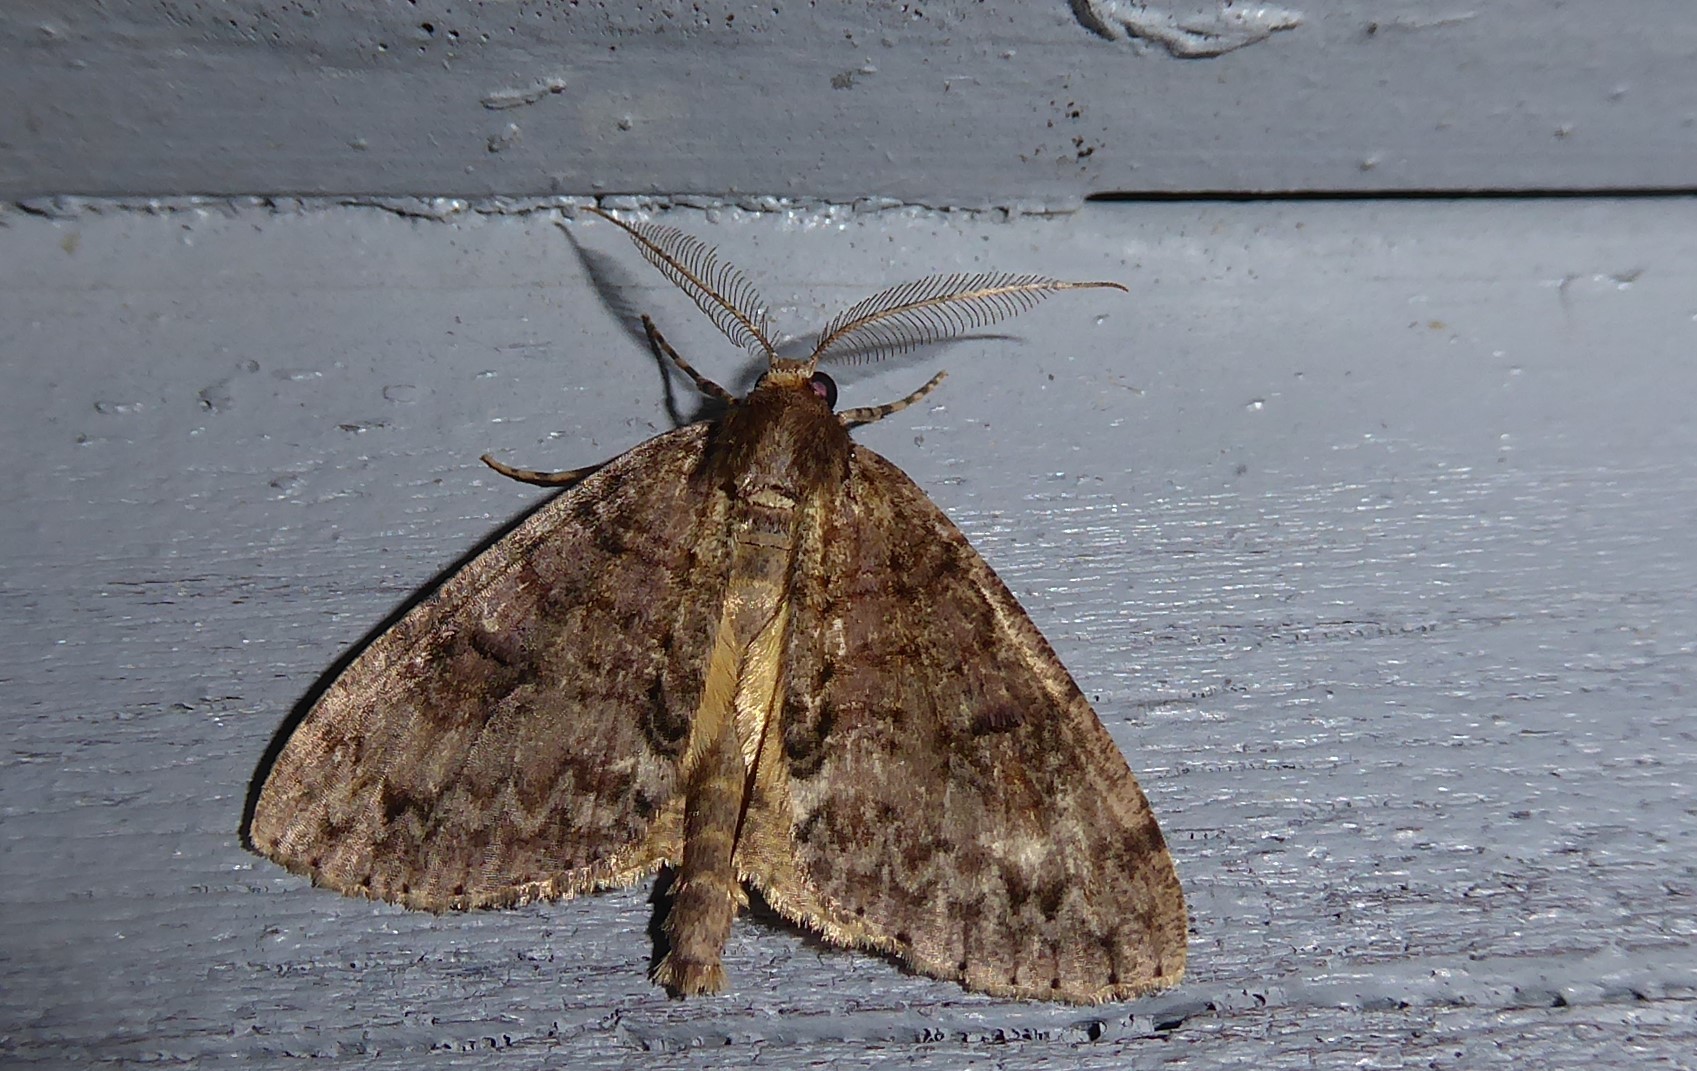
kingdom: Animalia
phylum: Arthropoda
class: Insecta
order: Lepidoptera
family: Geometridae
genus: Pseudocoremia
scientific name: Pseudocoremia suavis
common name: Common forest looper
